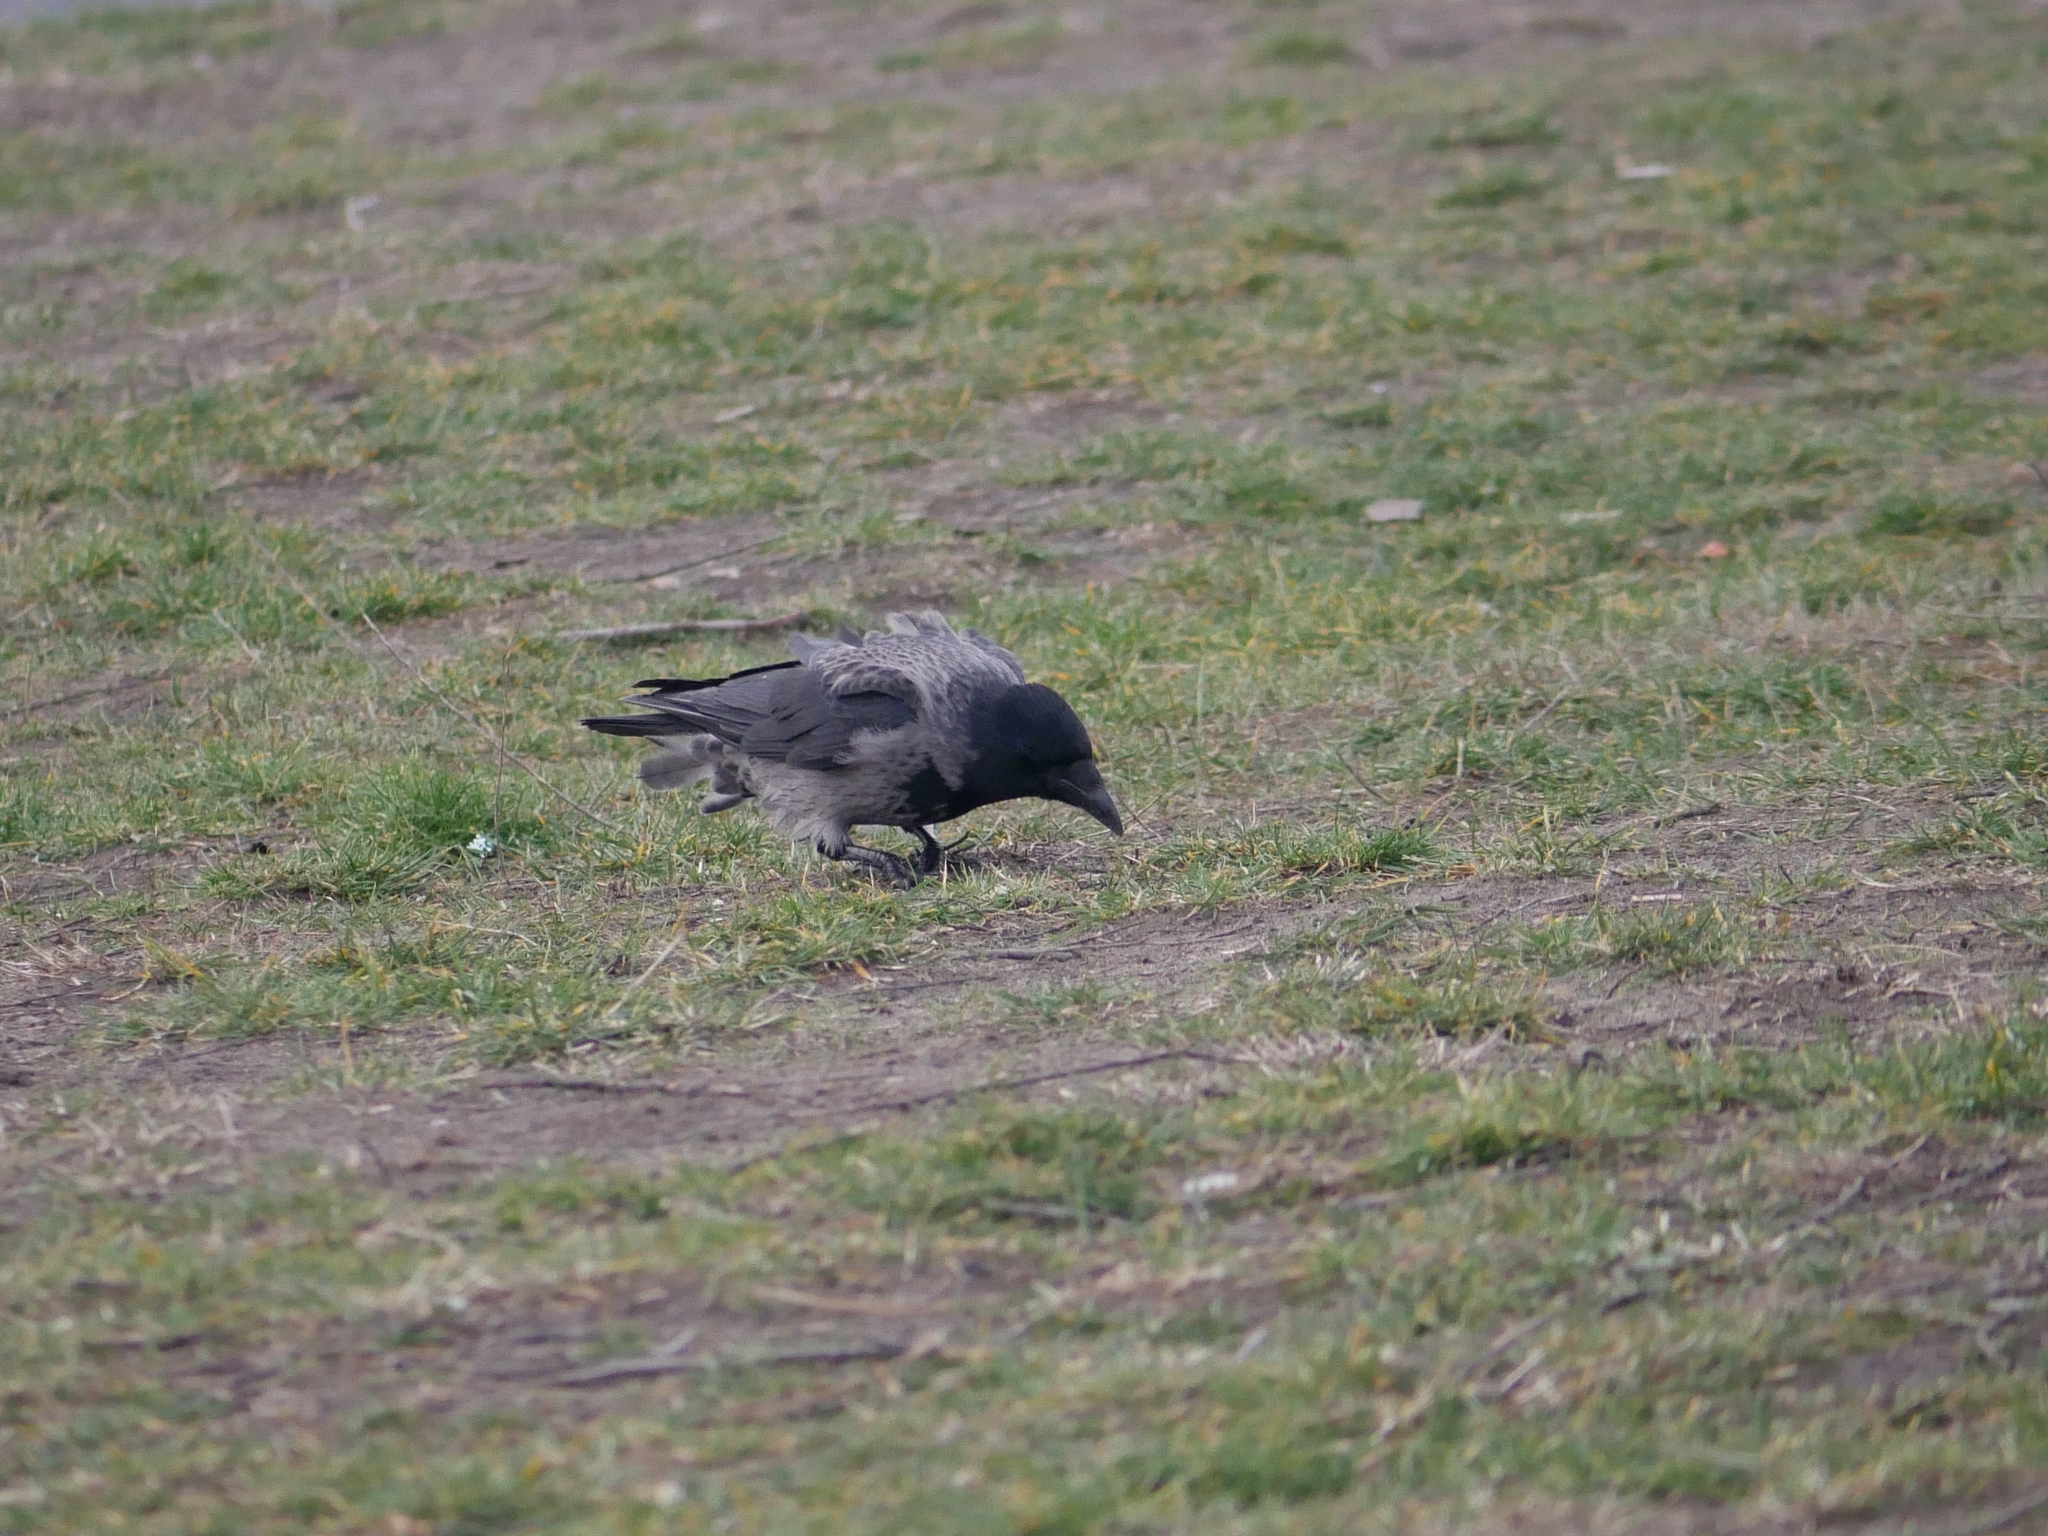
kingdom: Animalia
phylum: Chordata
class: Aves
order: Passeriformes
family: Corvidae
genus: Corvus
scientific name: Corvus
